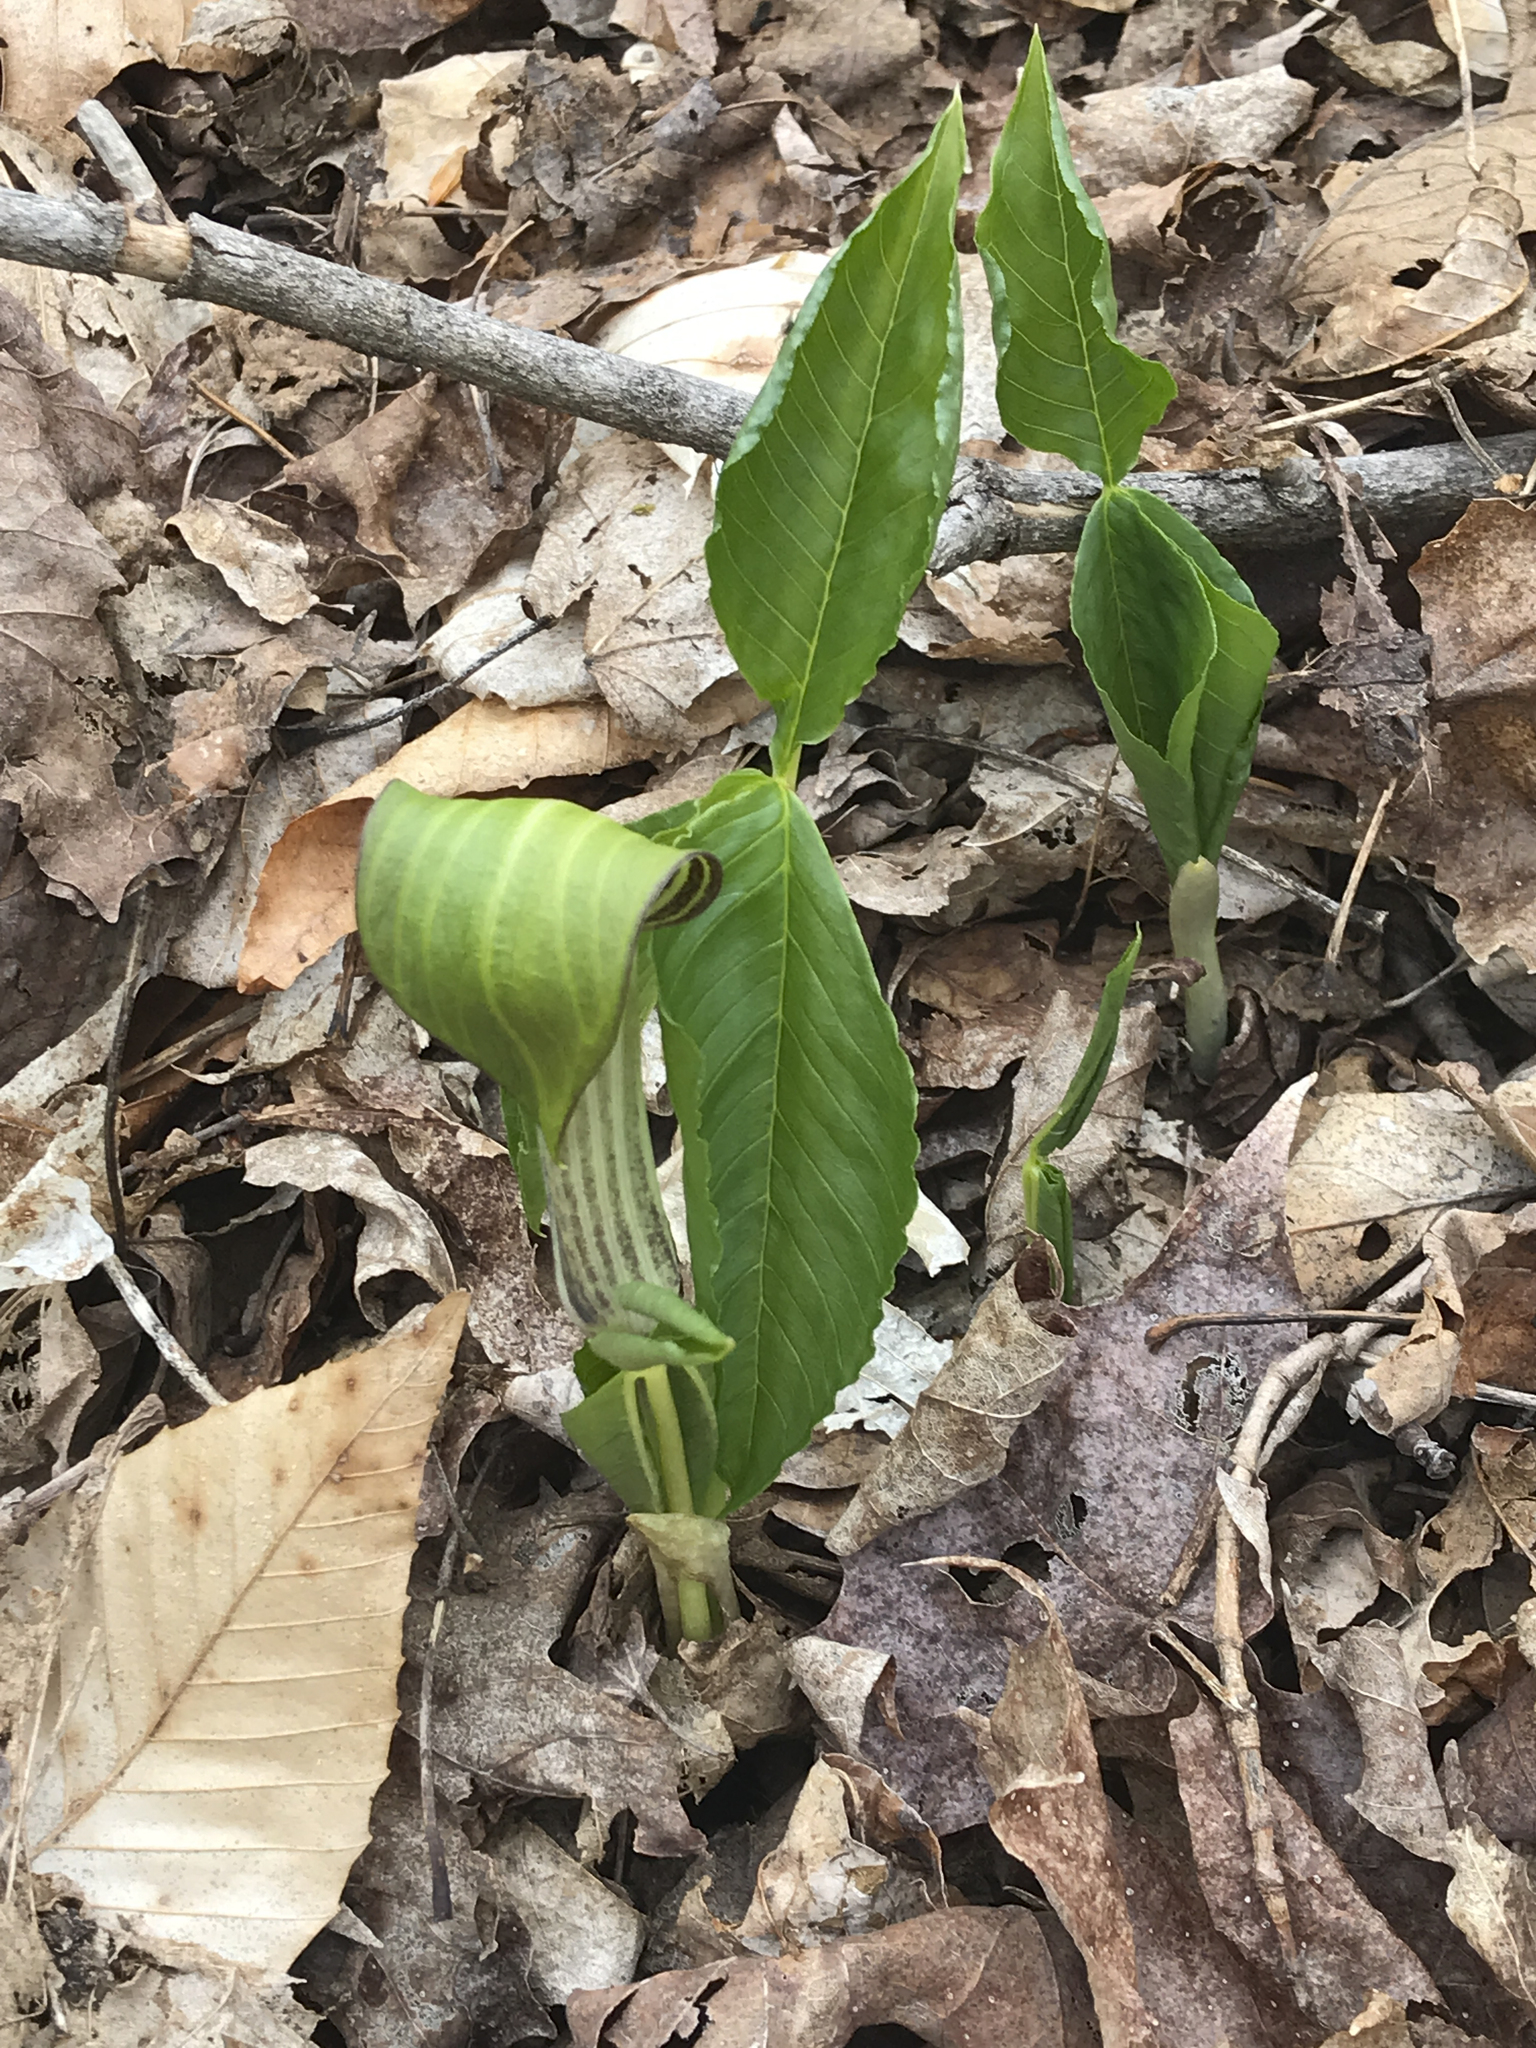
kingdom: Plantae
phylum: Tracheophyta
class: Liliopsida
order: Alismatales
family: Araceae
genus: Arisaema
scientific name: Arisaema triphyllum
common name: Jack-in-the-pulpit
